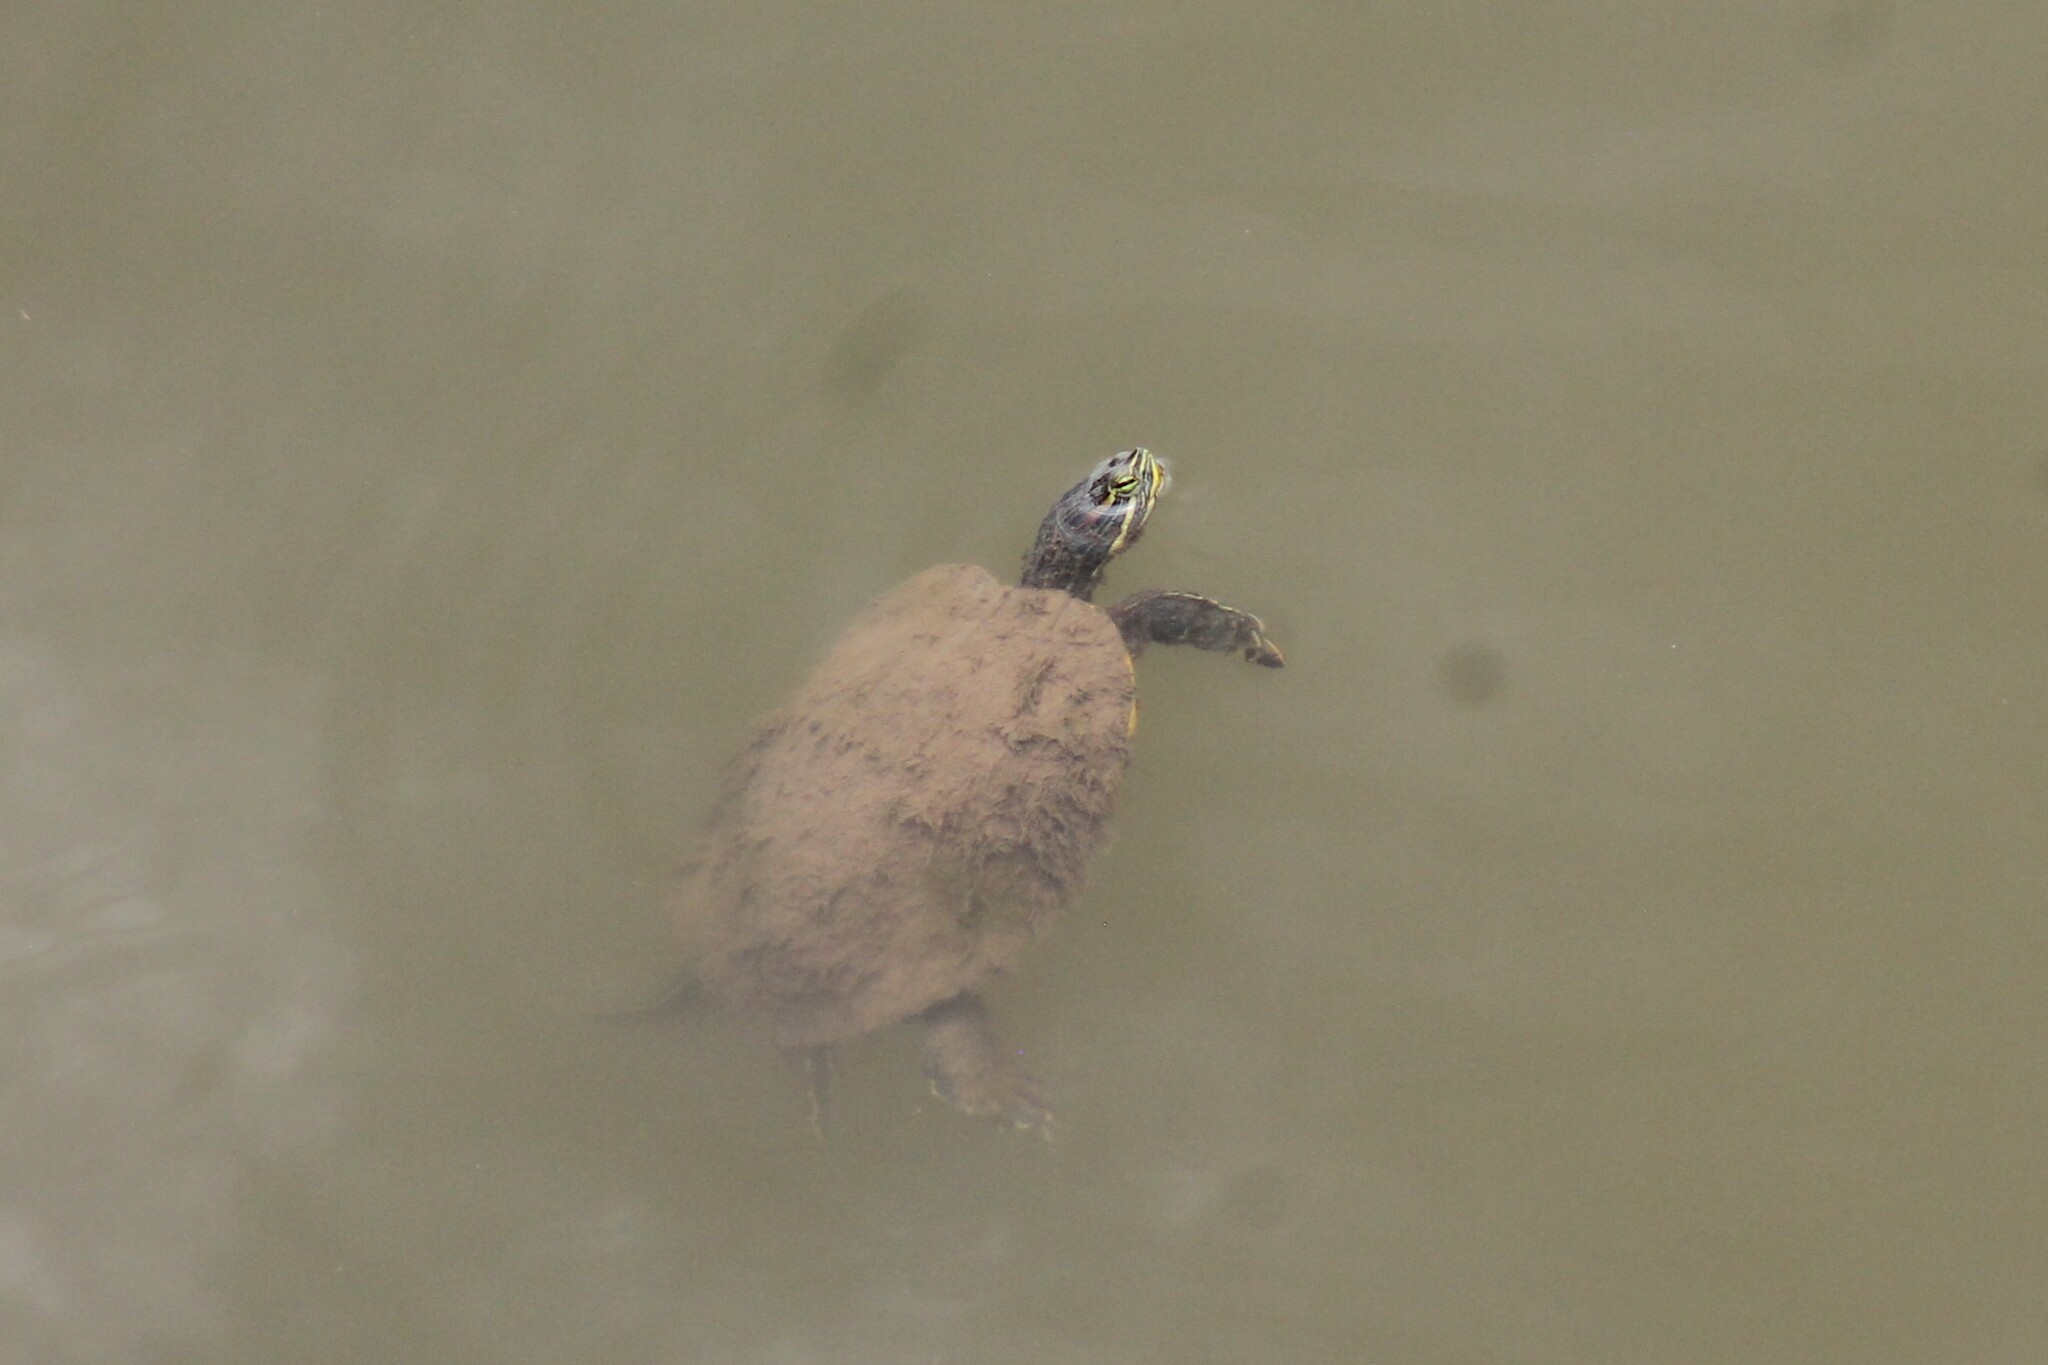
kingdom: Animalia
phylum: Chordata
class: Testudines
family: Emydidae
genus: Trachemys
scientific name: Trachemys scripta
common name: Slider
